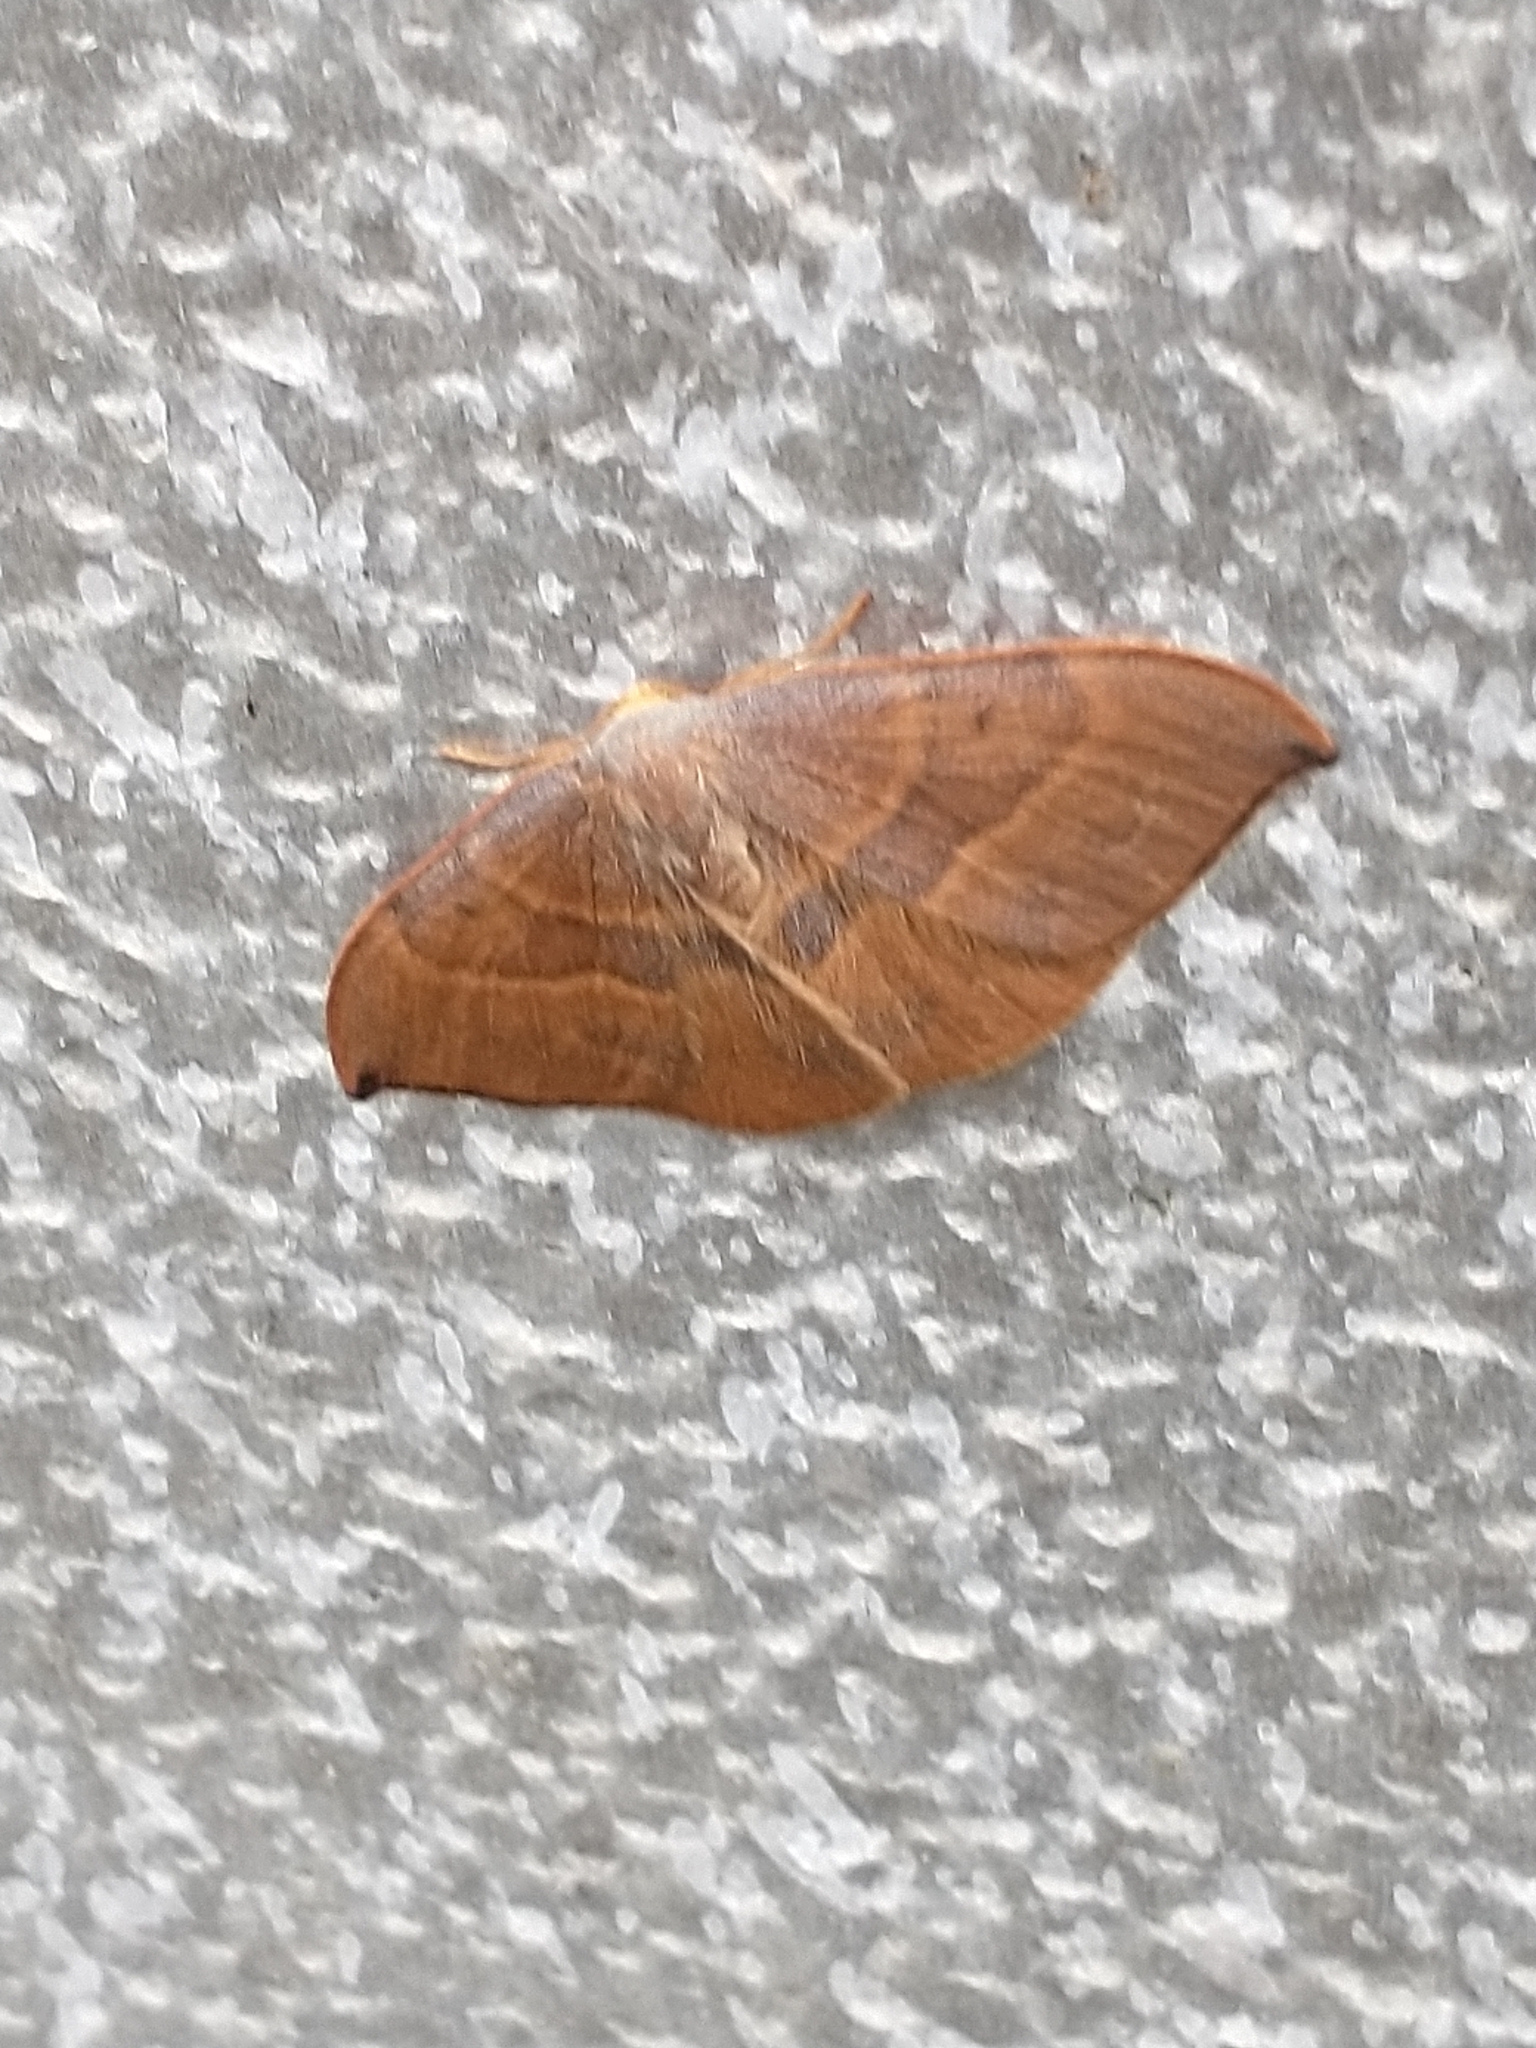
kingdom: Animalia
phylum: Arthropoda
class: Insecta
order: Lepidoptera
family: Drepanidae
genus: Watsonalla
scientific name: Watsonalla cultraria
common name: Barred hook-tip
